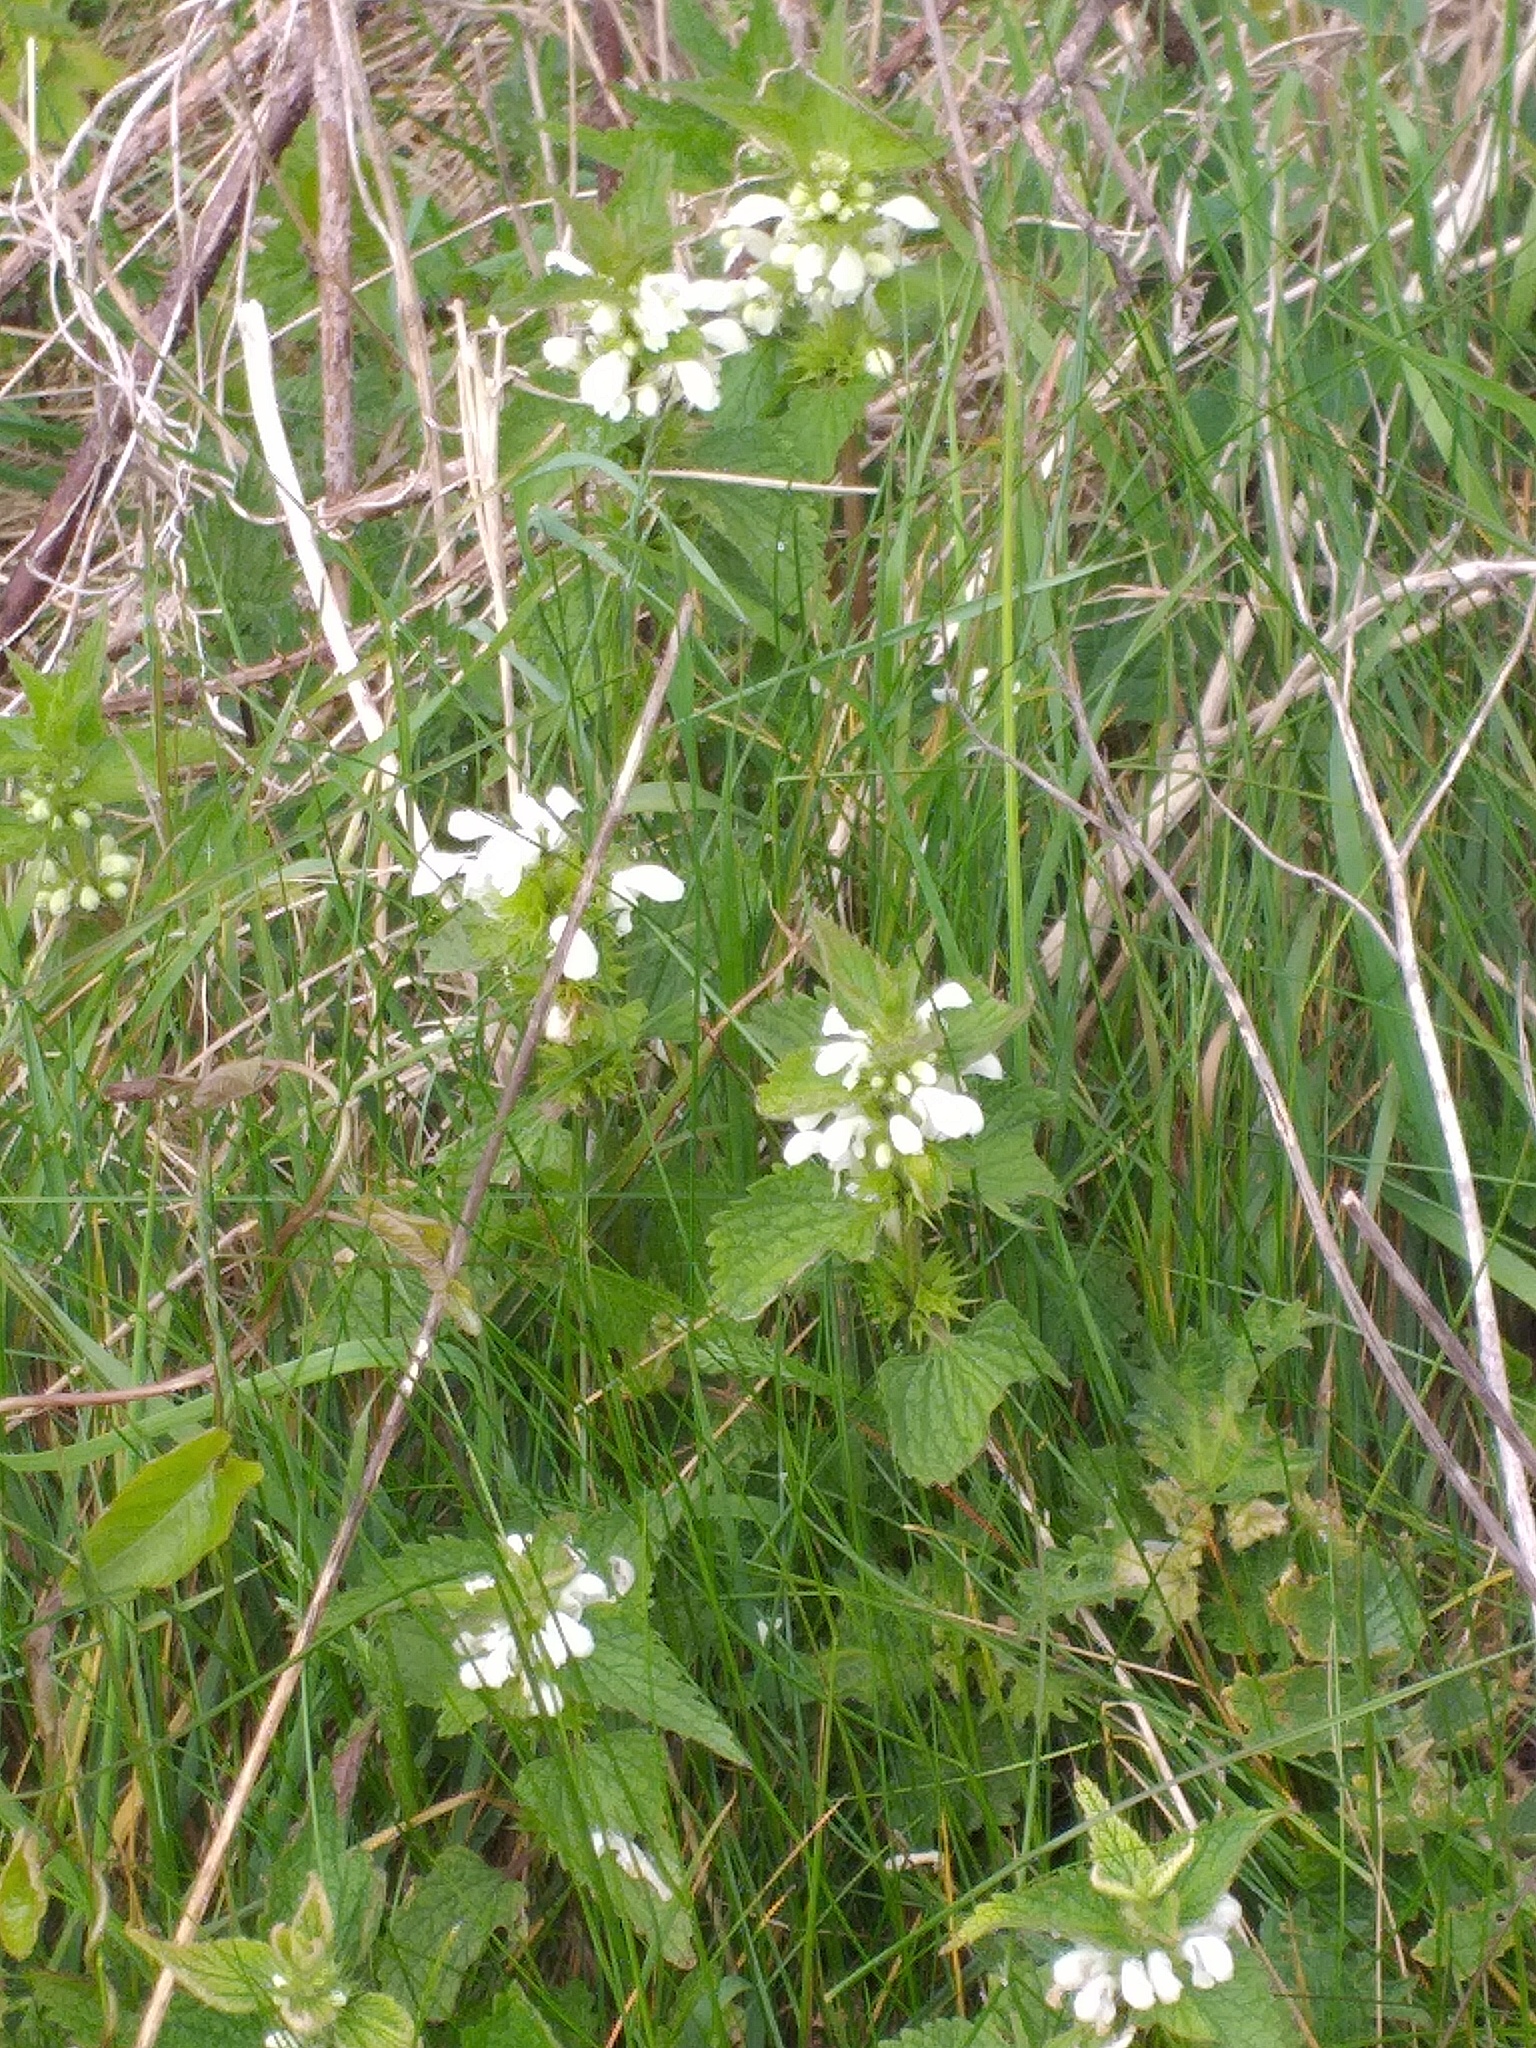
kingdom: Plantae
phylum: Tracheophyta
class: Magnoliopsida
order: Lamiales
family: Lamiaceae
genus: Lamium
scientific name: Lamium album
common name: White dead-nettle
